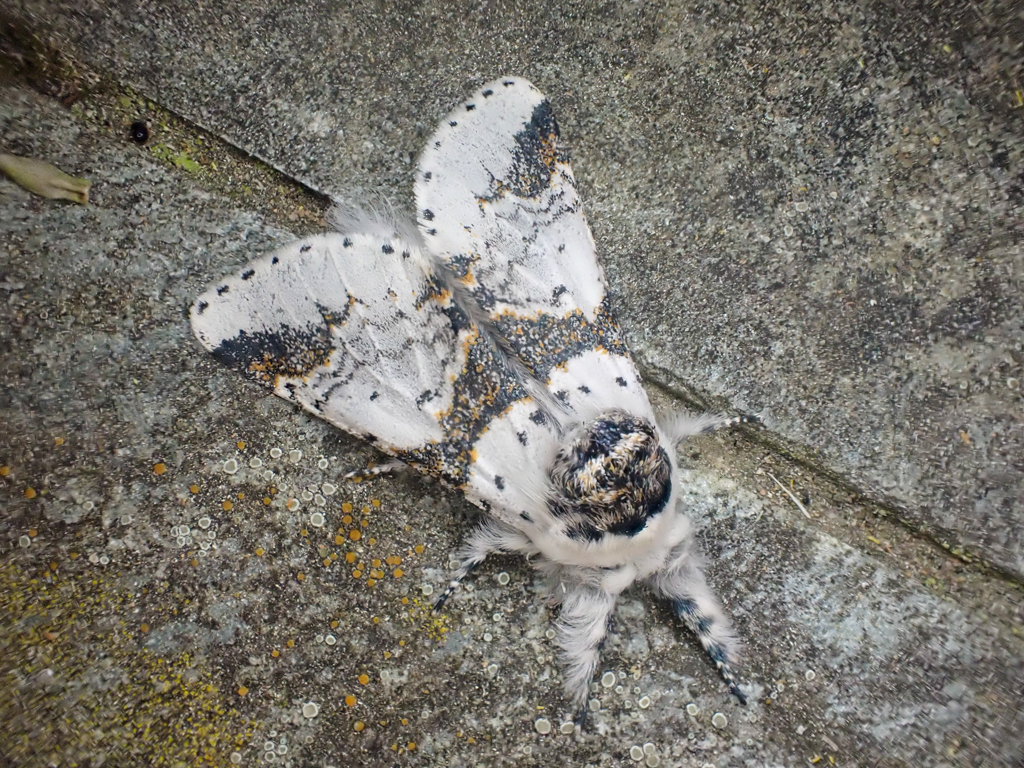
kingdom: Animalia
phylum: Arthropoda
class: Insecta
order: Lepidoptera
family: Notodontidae
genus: Furcula
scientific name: Furcula scolopendrina
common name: Zigzag furcula moth
